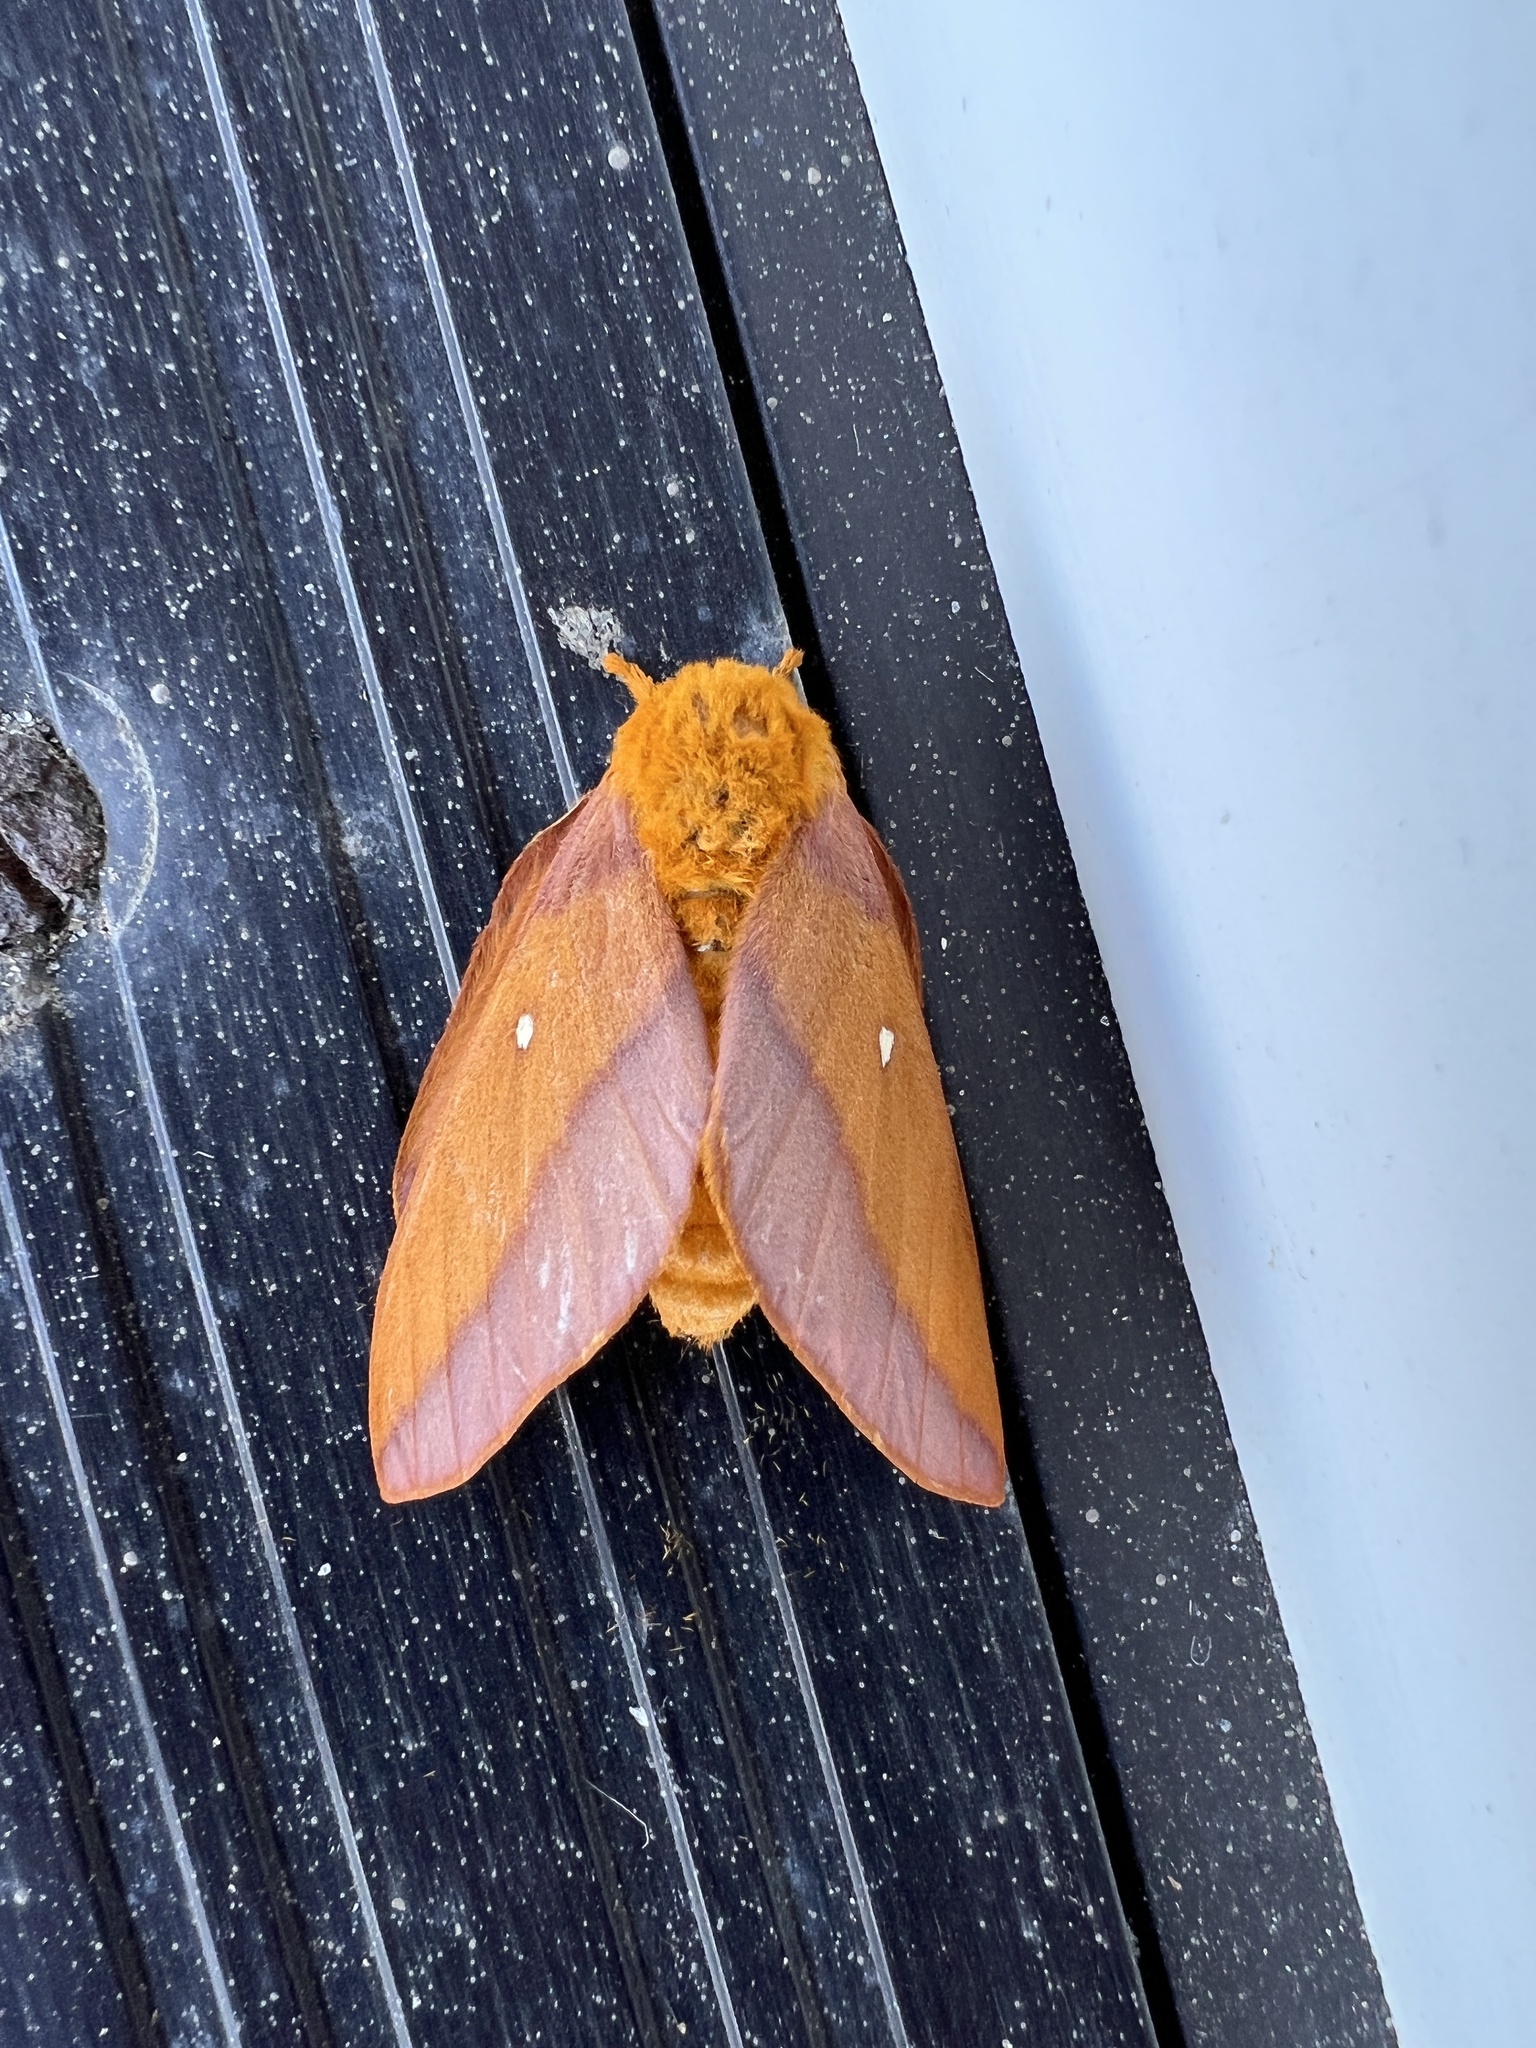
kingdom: Animalia
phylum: Arthropoda
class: Insecta
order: Lepidoptera
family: Saturniidae
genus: Anisota
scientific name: Anisota virginiensis
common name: Pink striped oakworm moth
